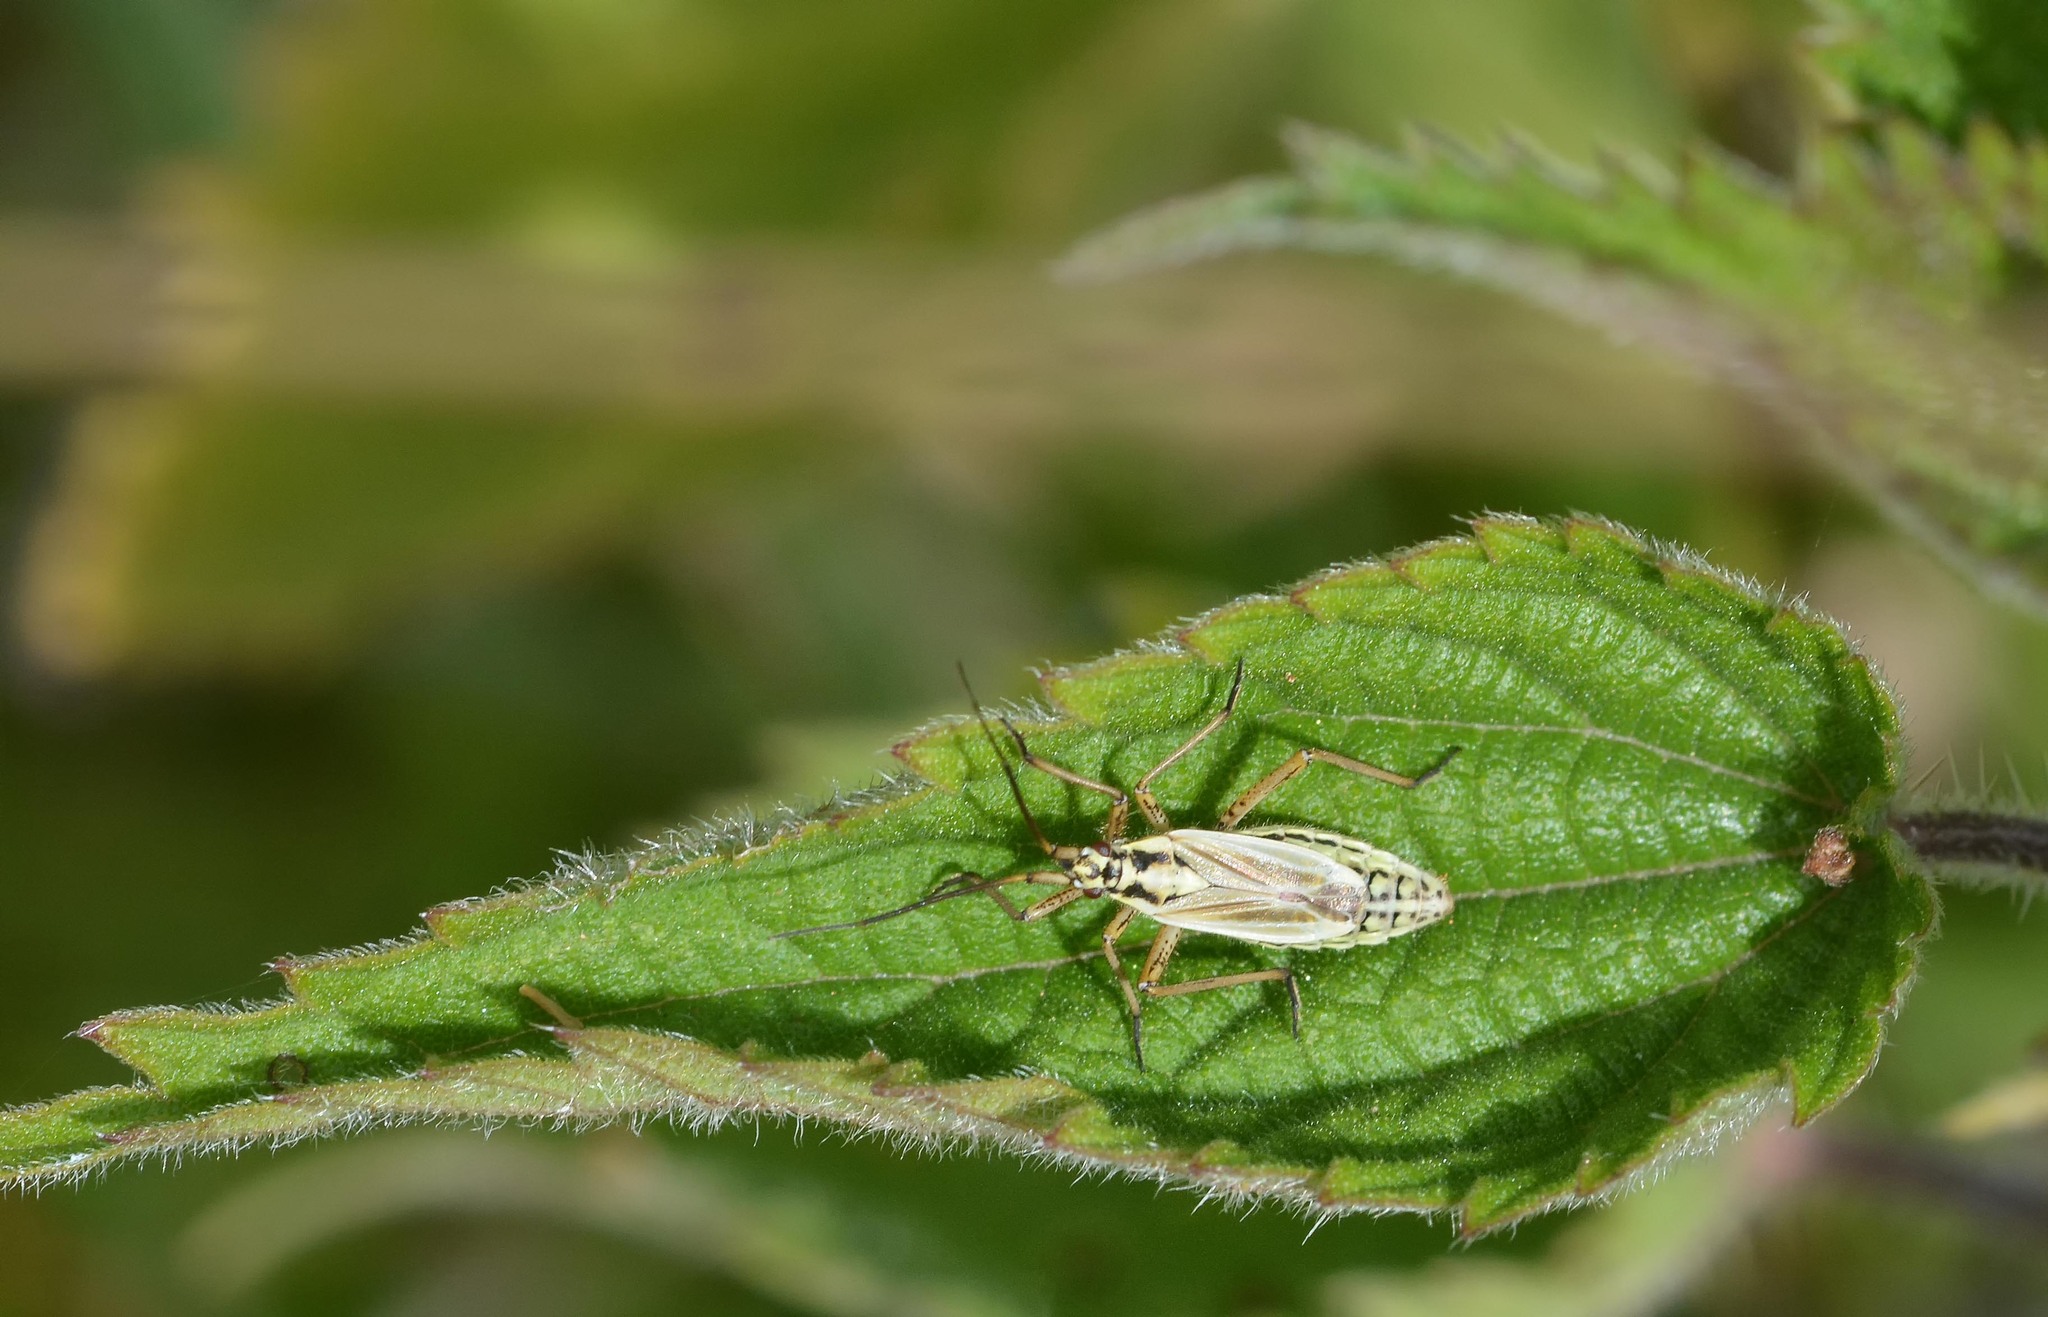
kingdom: Animalia
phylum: Arthropoda
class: Insecta
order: Hemiptera
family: Miridae
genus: Leptopterna
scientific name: Leptopterna dolabrata
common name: Meadow plant bug
